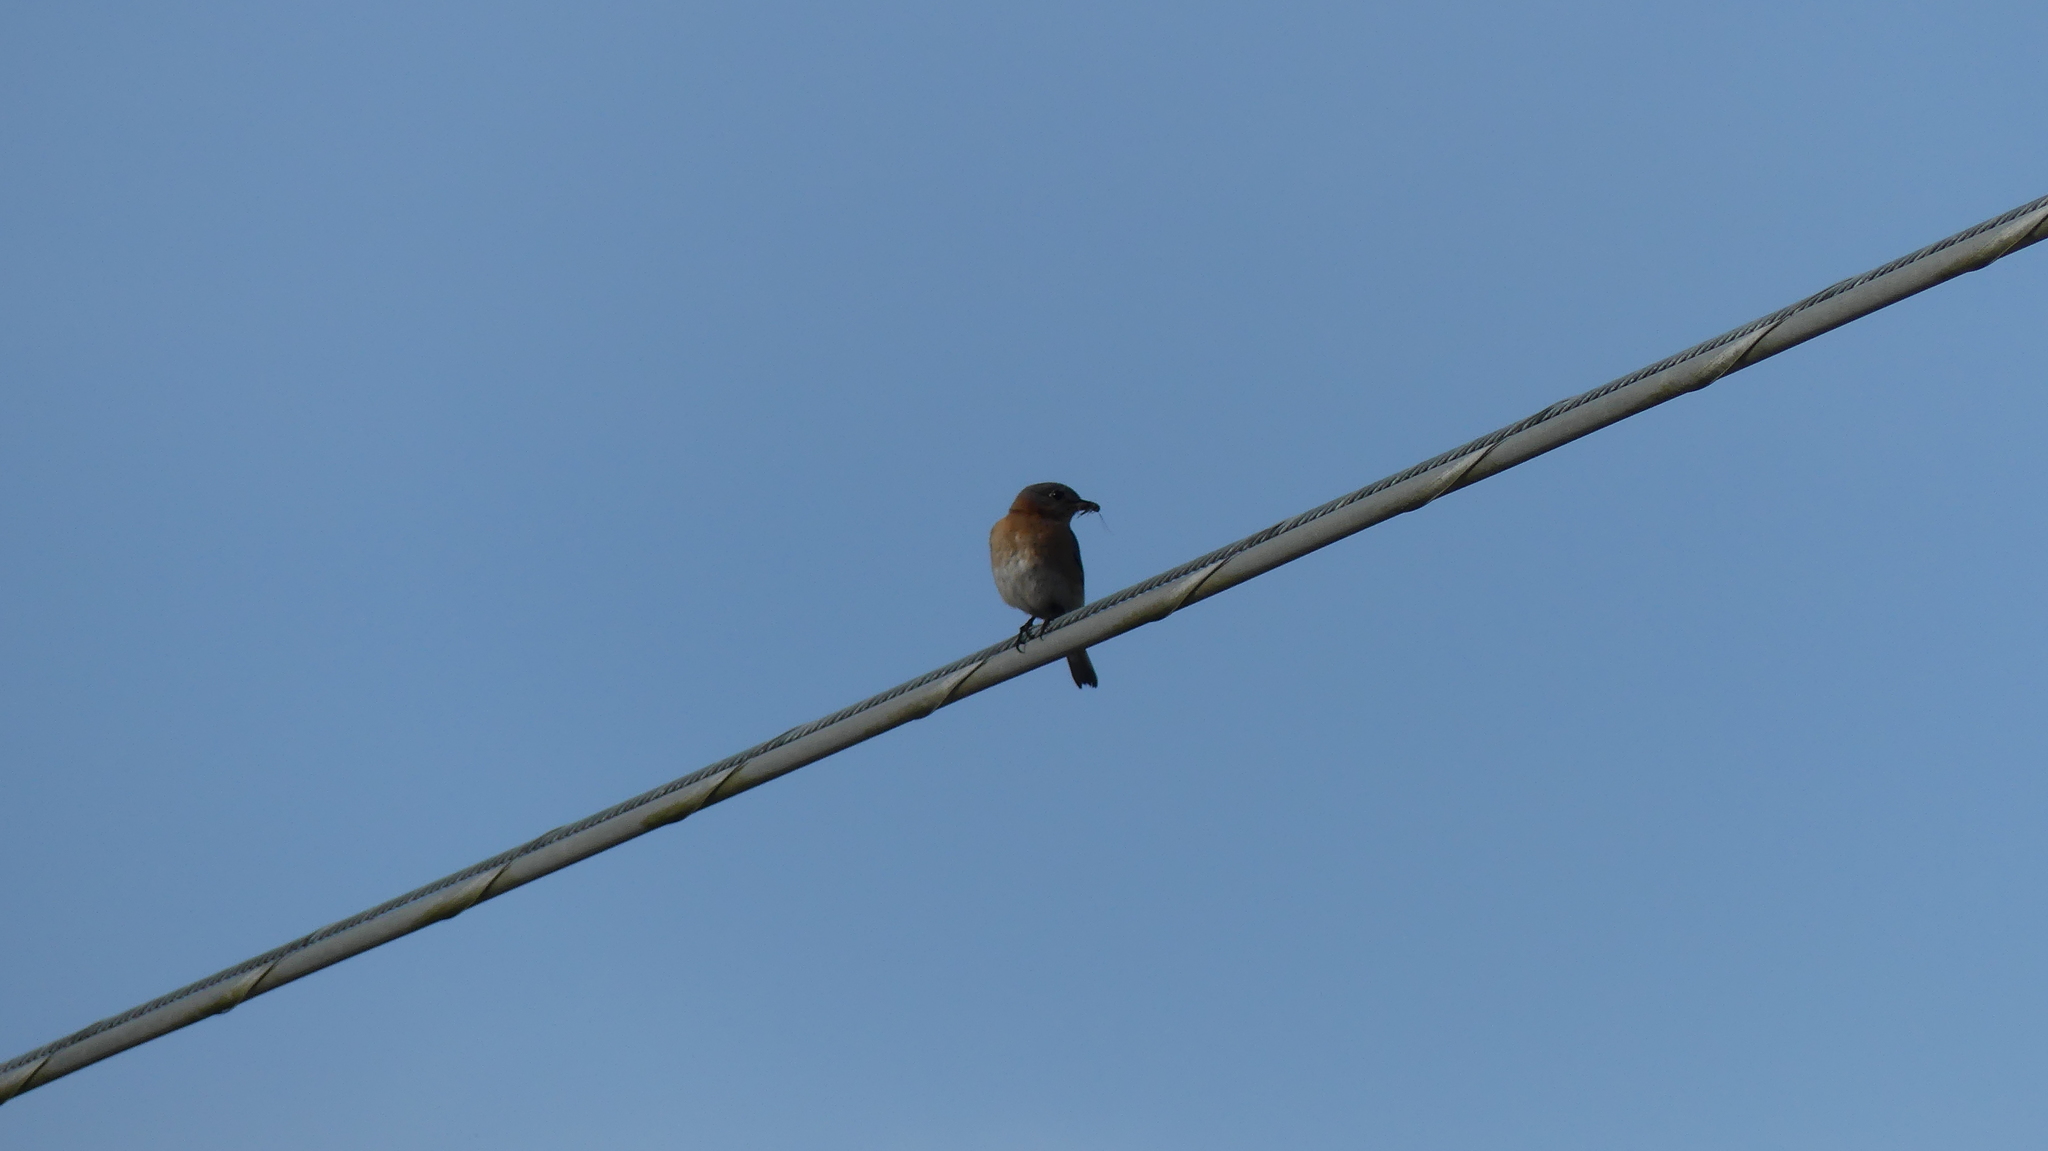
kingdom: Animalia
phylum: Chordata
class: Aves
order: Passeriformes
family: Turdidae
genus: Sialia
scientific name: Sialia sialis
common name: Eastern bluebird
